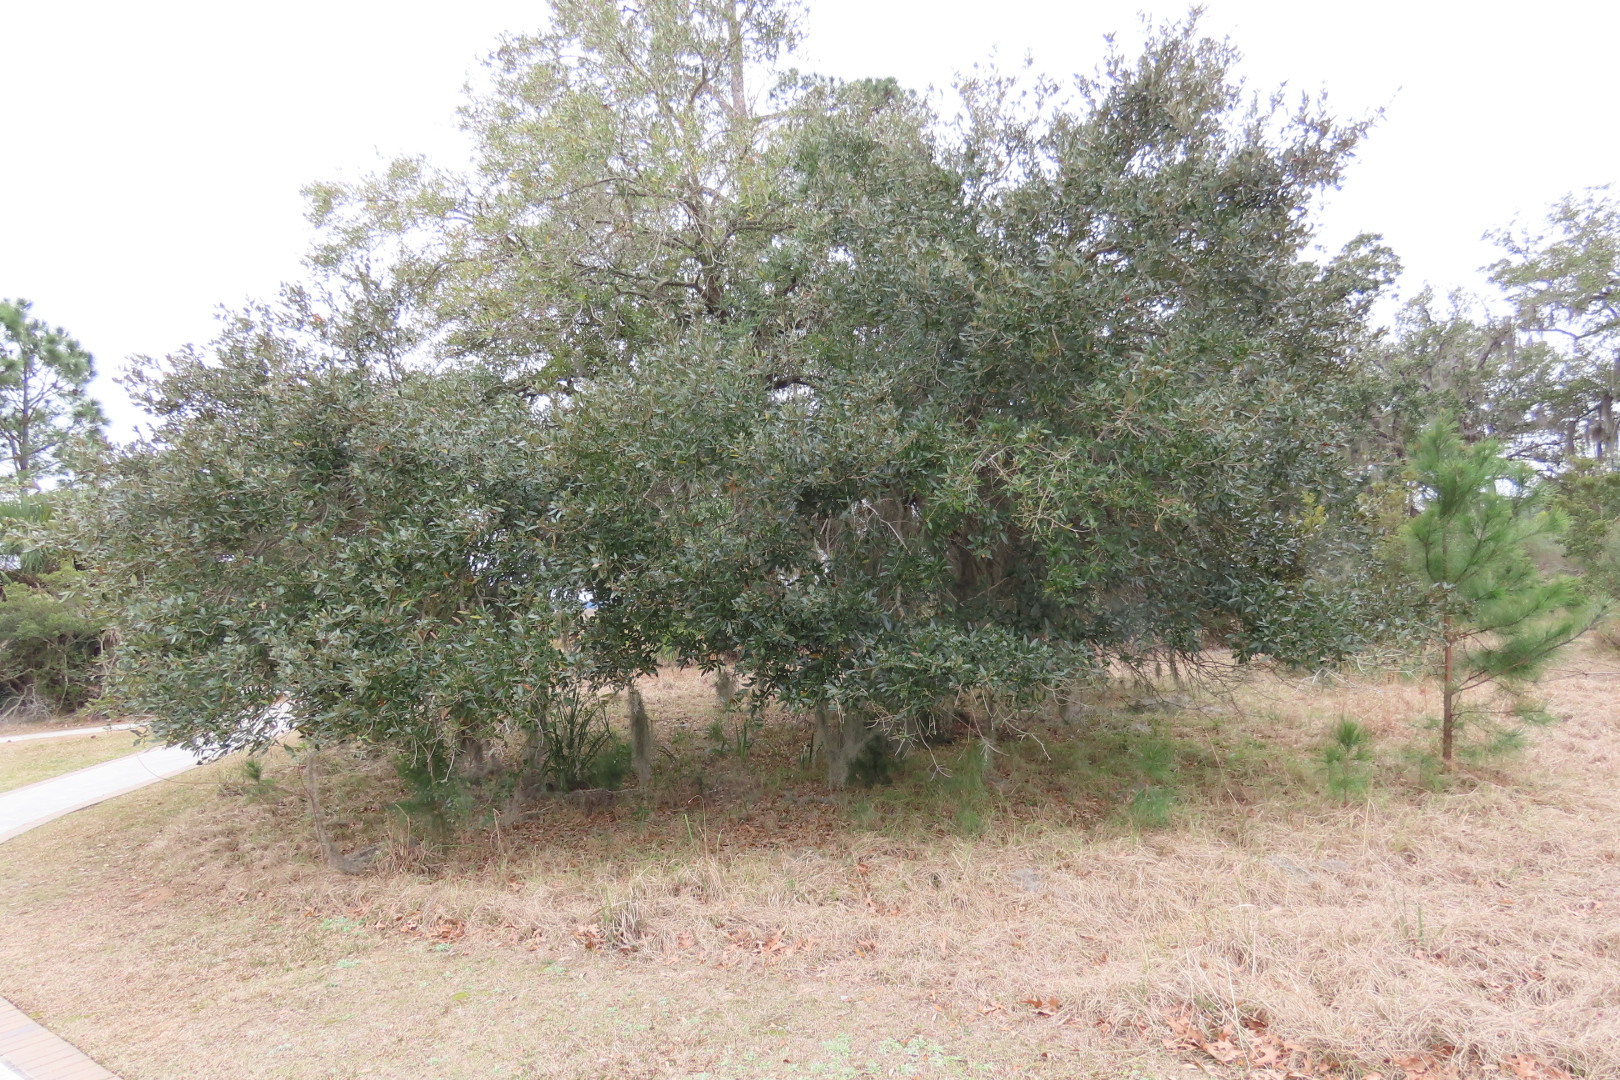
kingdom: Plantae
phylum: Tracheophyta
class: Magnoliopsida
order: Fagales
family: Fagaceae
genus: Quercus
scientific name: Quercus virginiana
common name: Southern live oak
